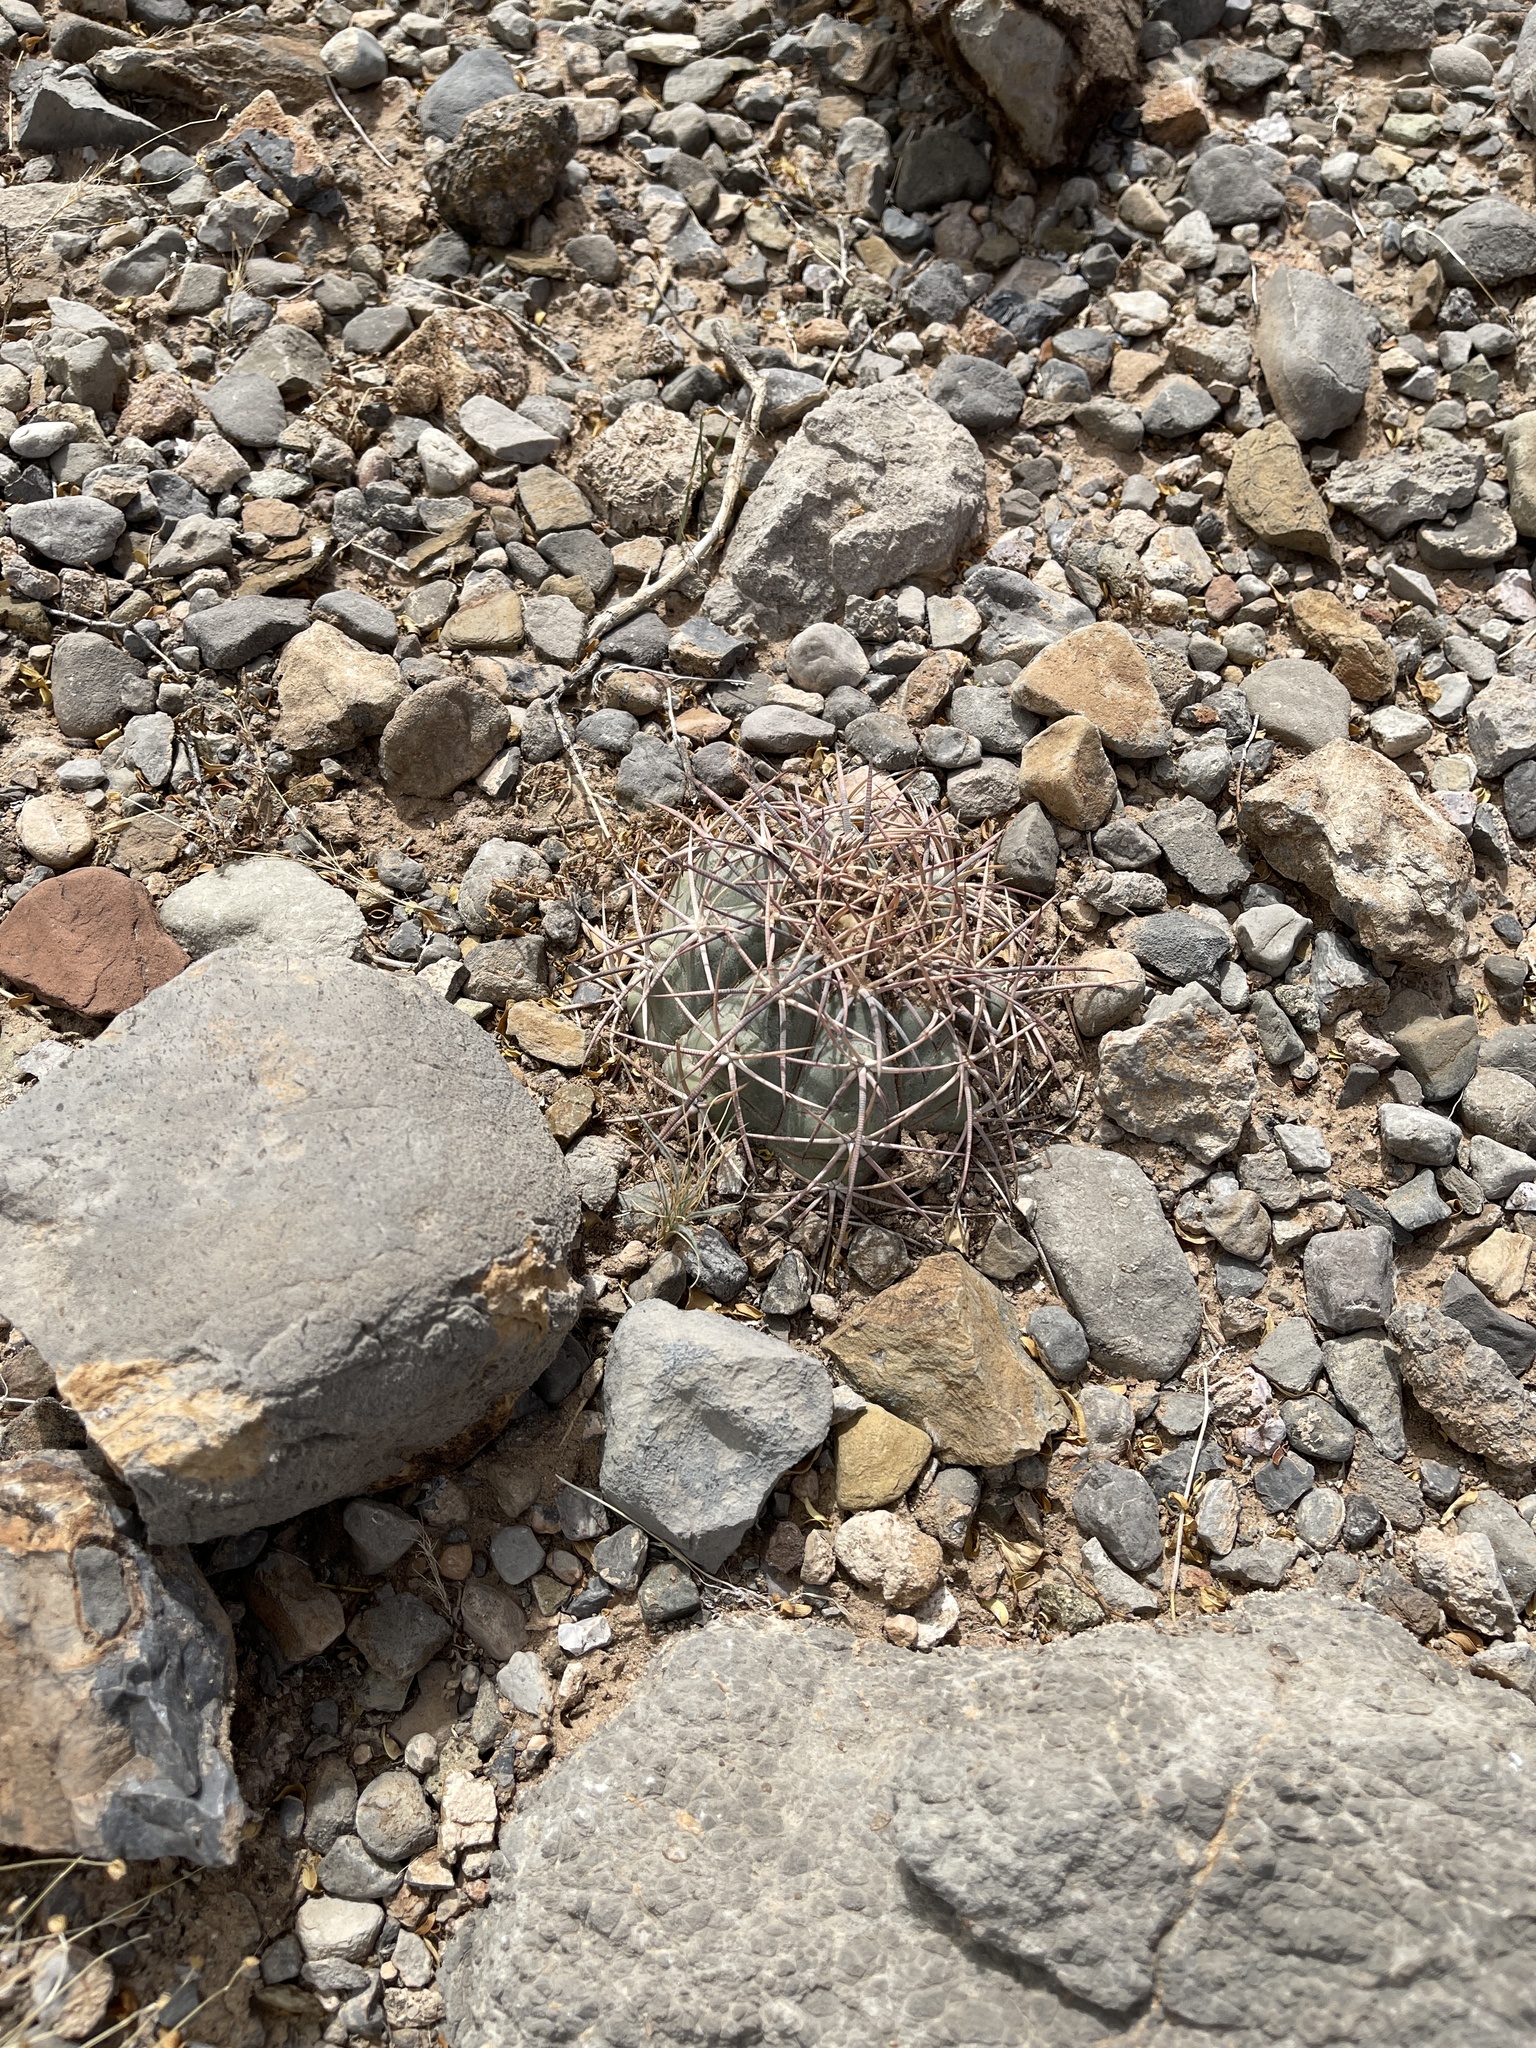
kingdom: Plantae
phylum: Tracheophyta
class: Magnoliopsida
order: Caryophyllales
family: Cactaceae
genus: Echinocactus
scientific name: Echinocactus horizonthalonius
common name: Devilshead
